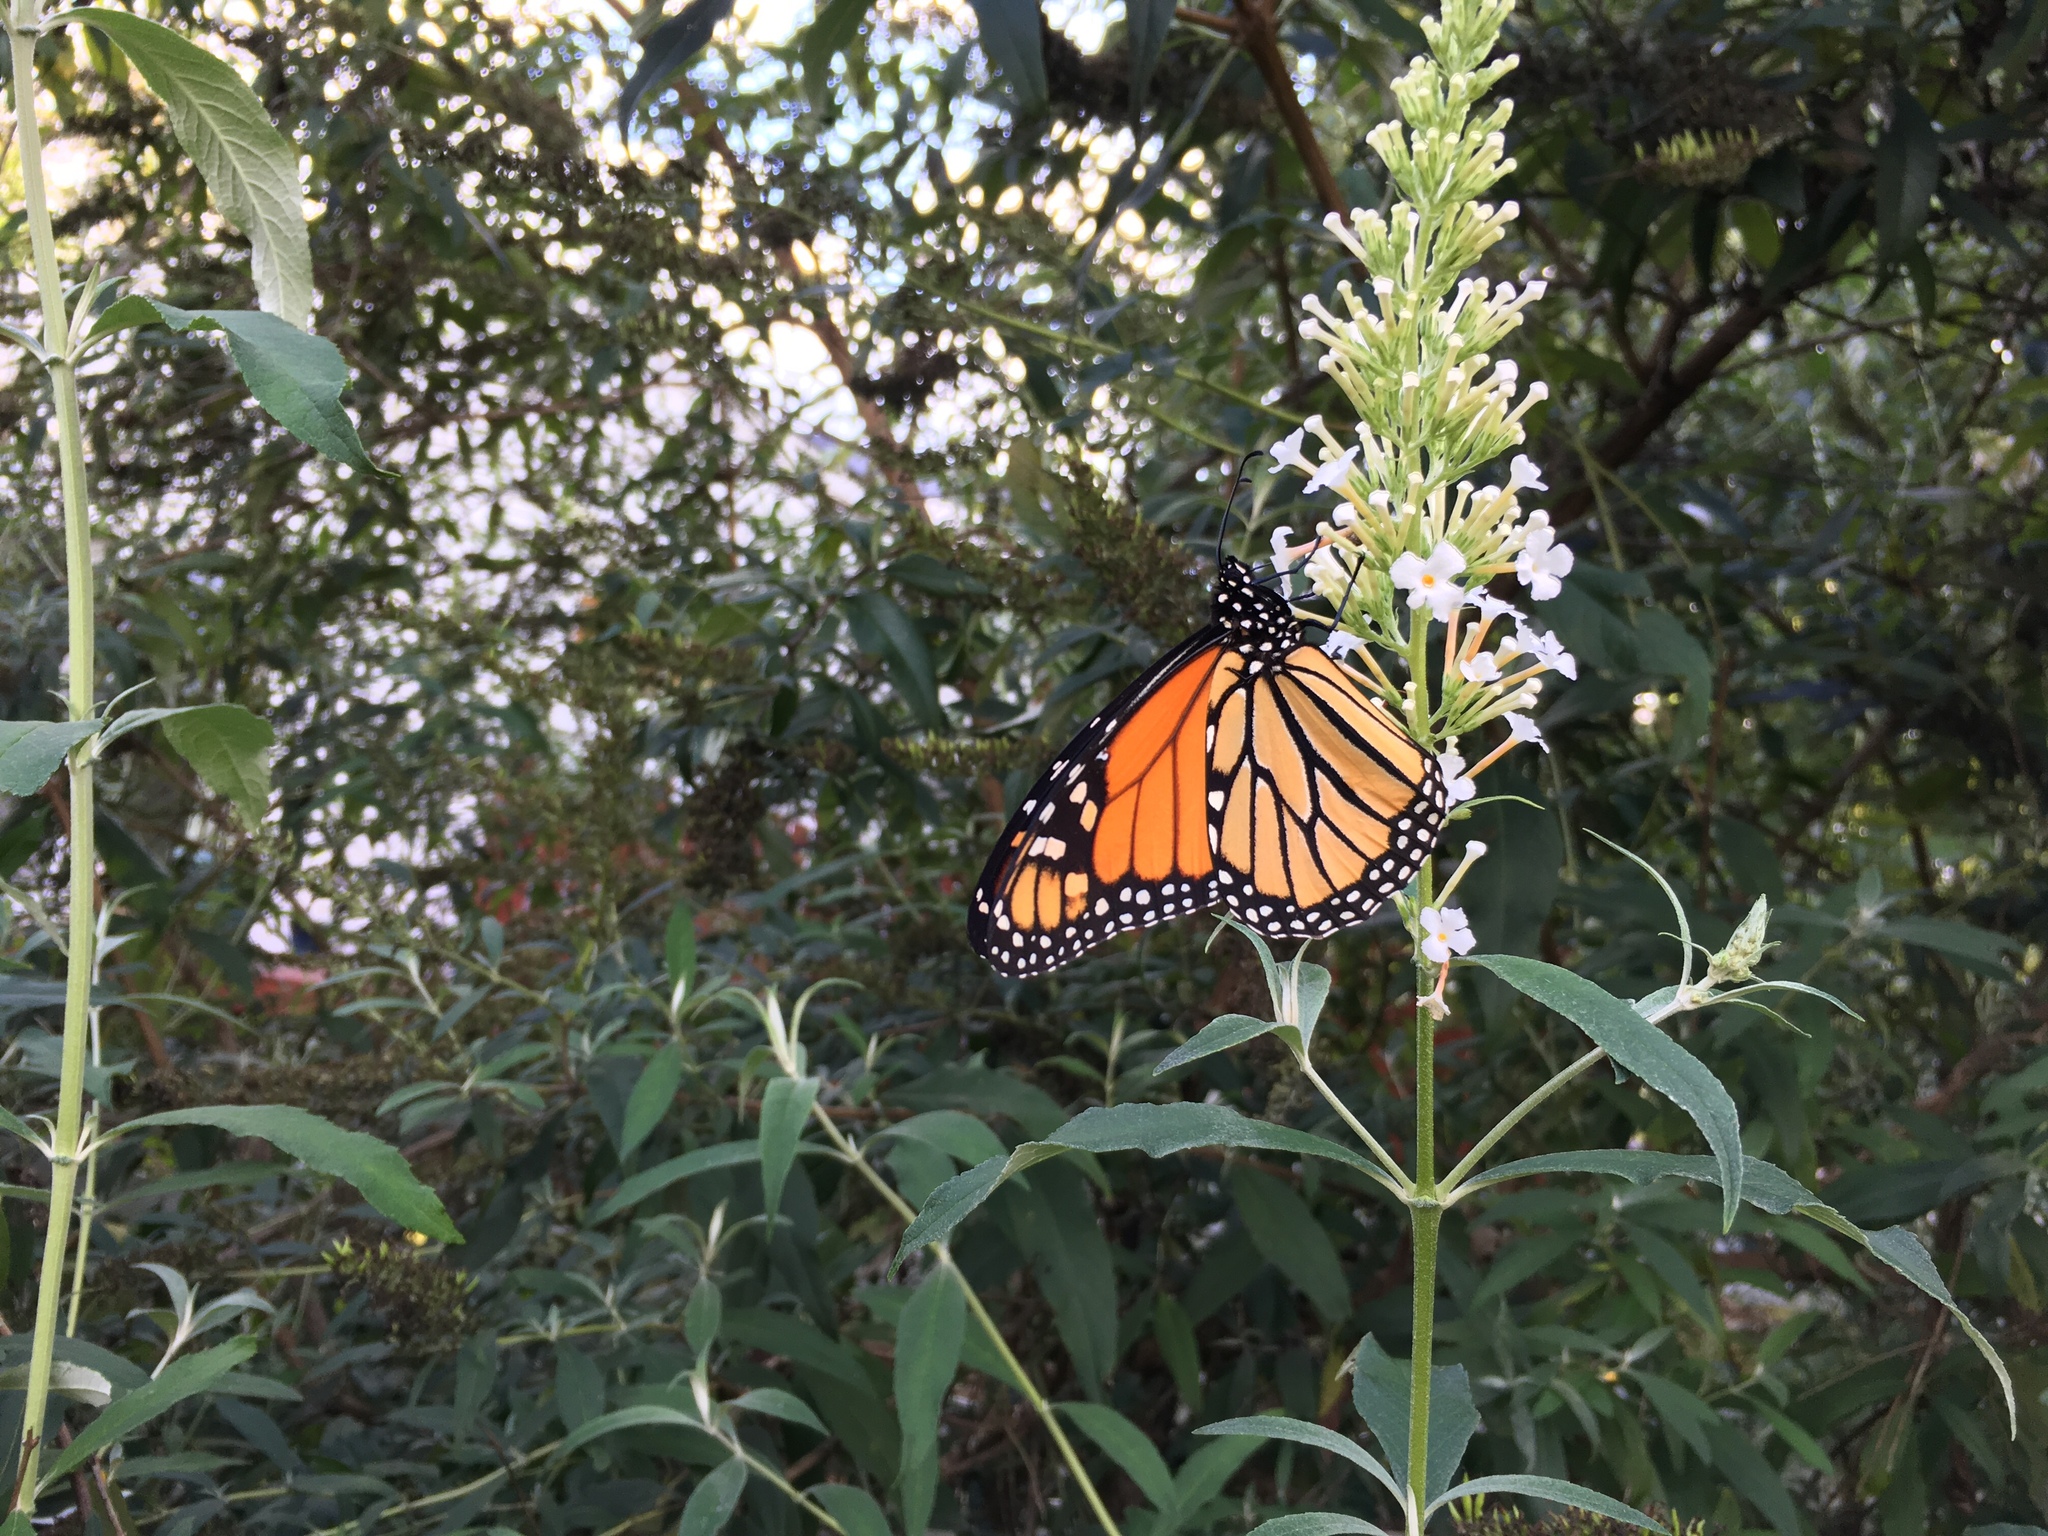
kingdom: Animalia
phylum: Arthropoda
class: Insecta
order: Lepidoptera
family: Nymphalidae
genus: Danaus
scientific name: Danaus plexippus
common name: Monarch
